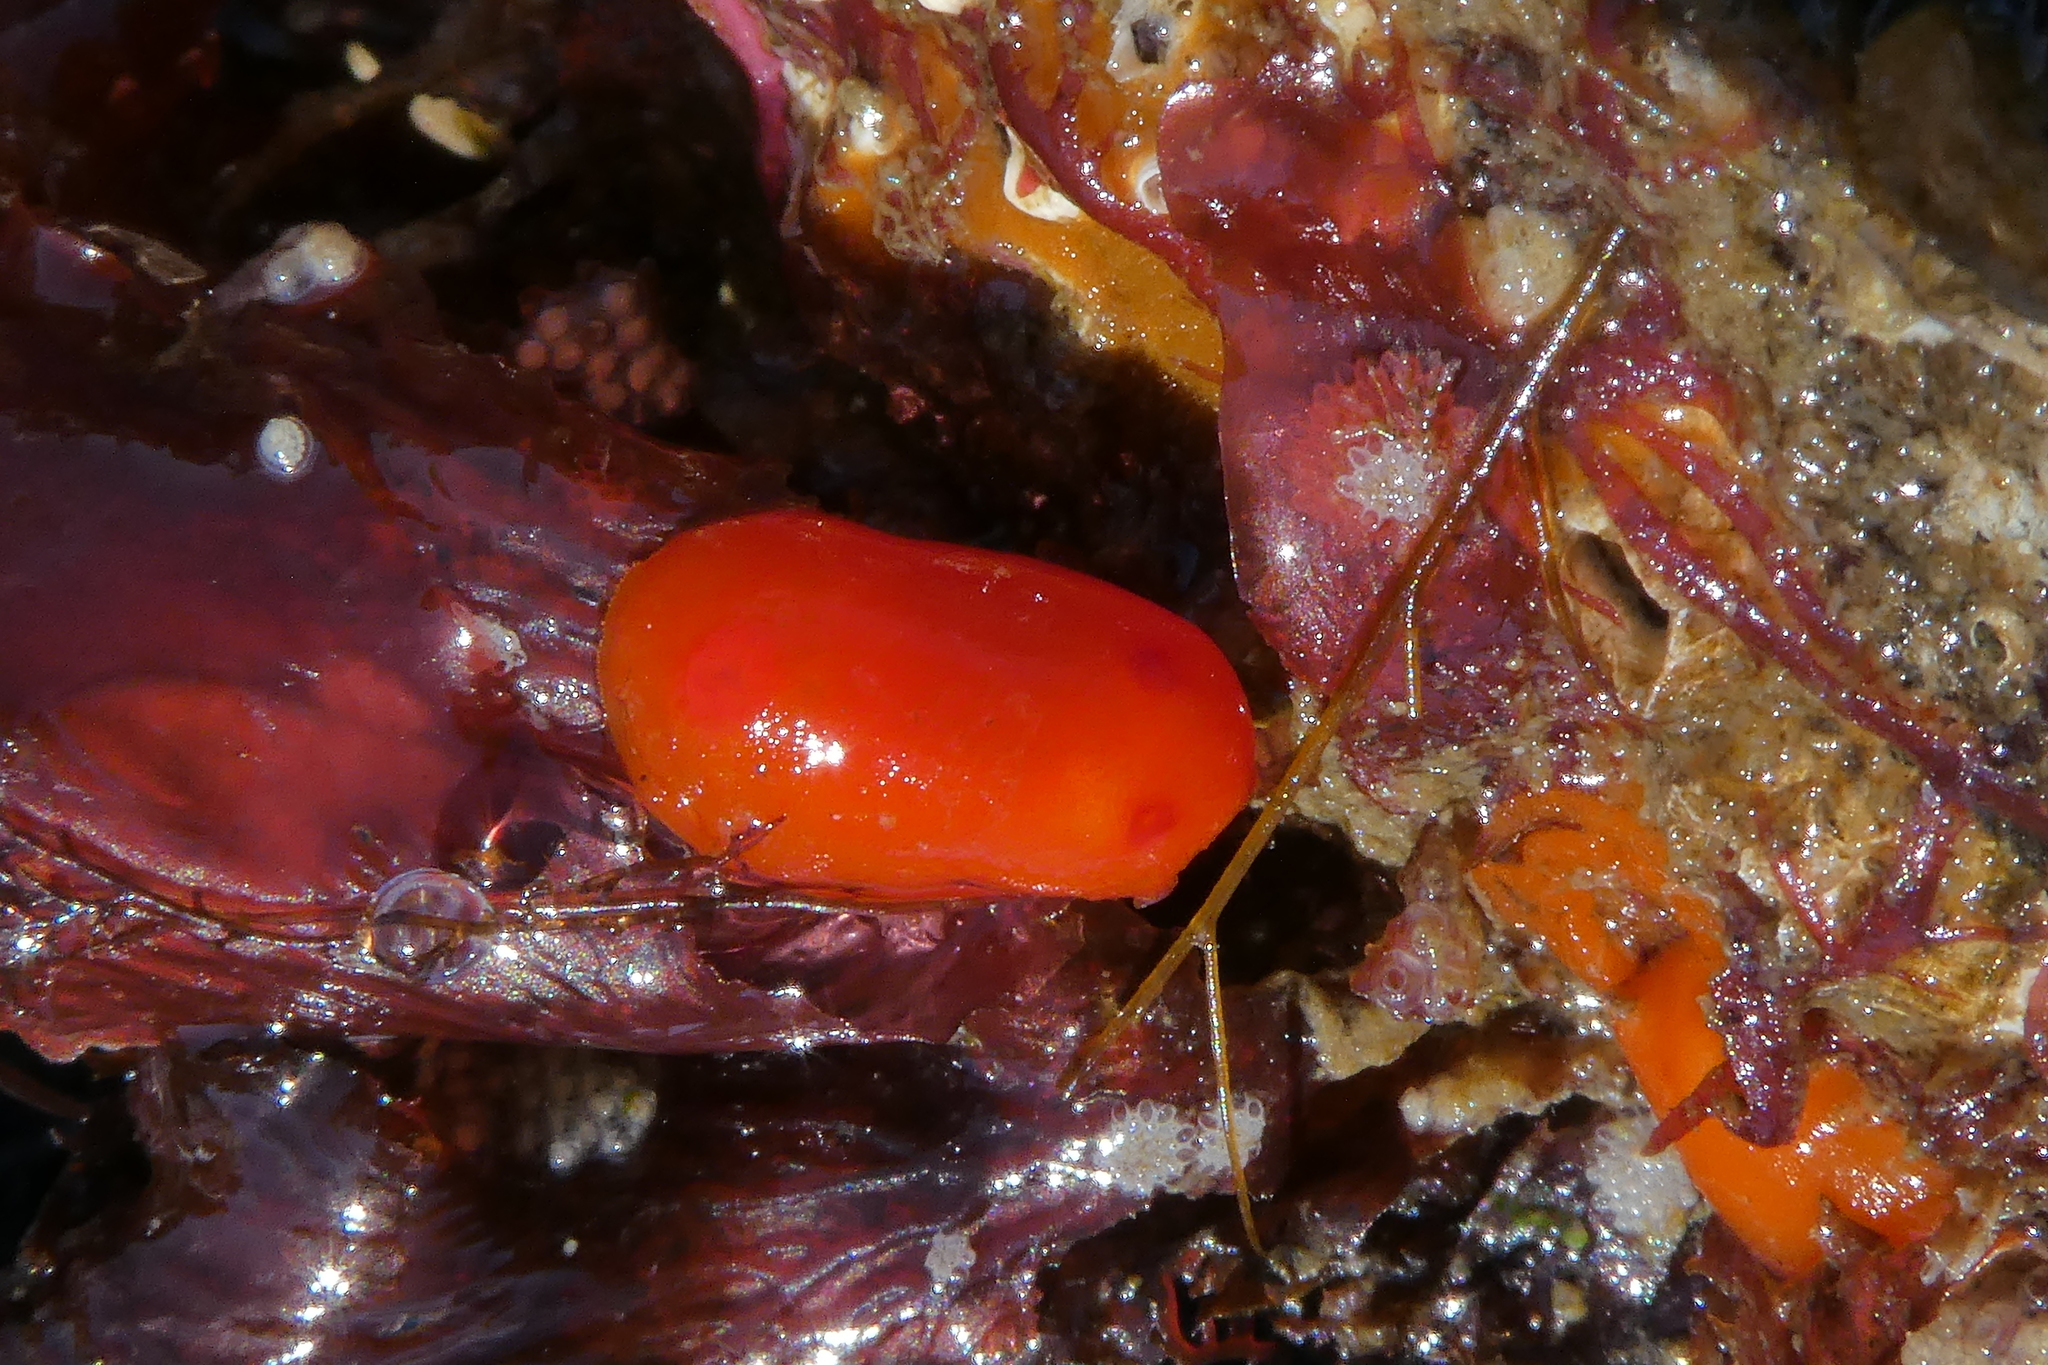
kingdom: Animalia
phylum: Mollusca
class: Gastropoda
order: Nudibranchia
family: Discodorididae
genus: Rostanga
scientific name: Rostanga pulchra
